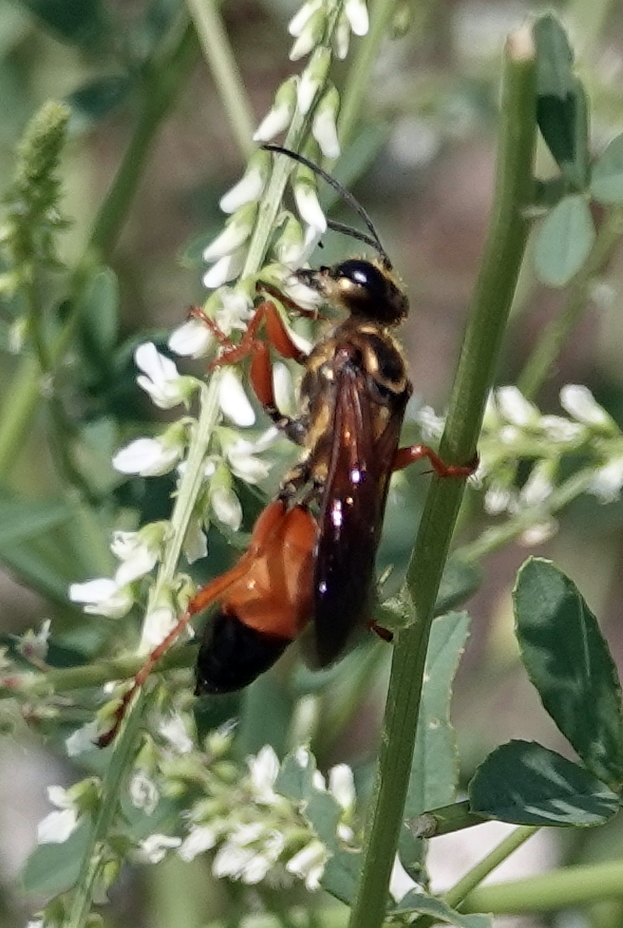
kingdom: Animalia
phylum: Arthropoda
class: Insecta
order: Hymenoptera
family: Sphecidae
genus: Sphex
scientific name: Sphex ichneumoneus
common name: Great golden digger wasp
